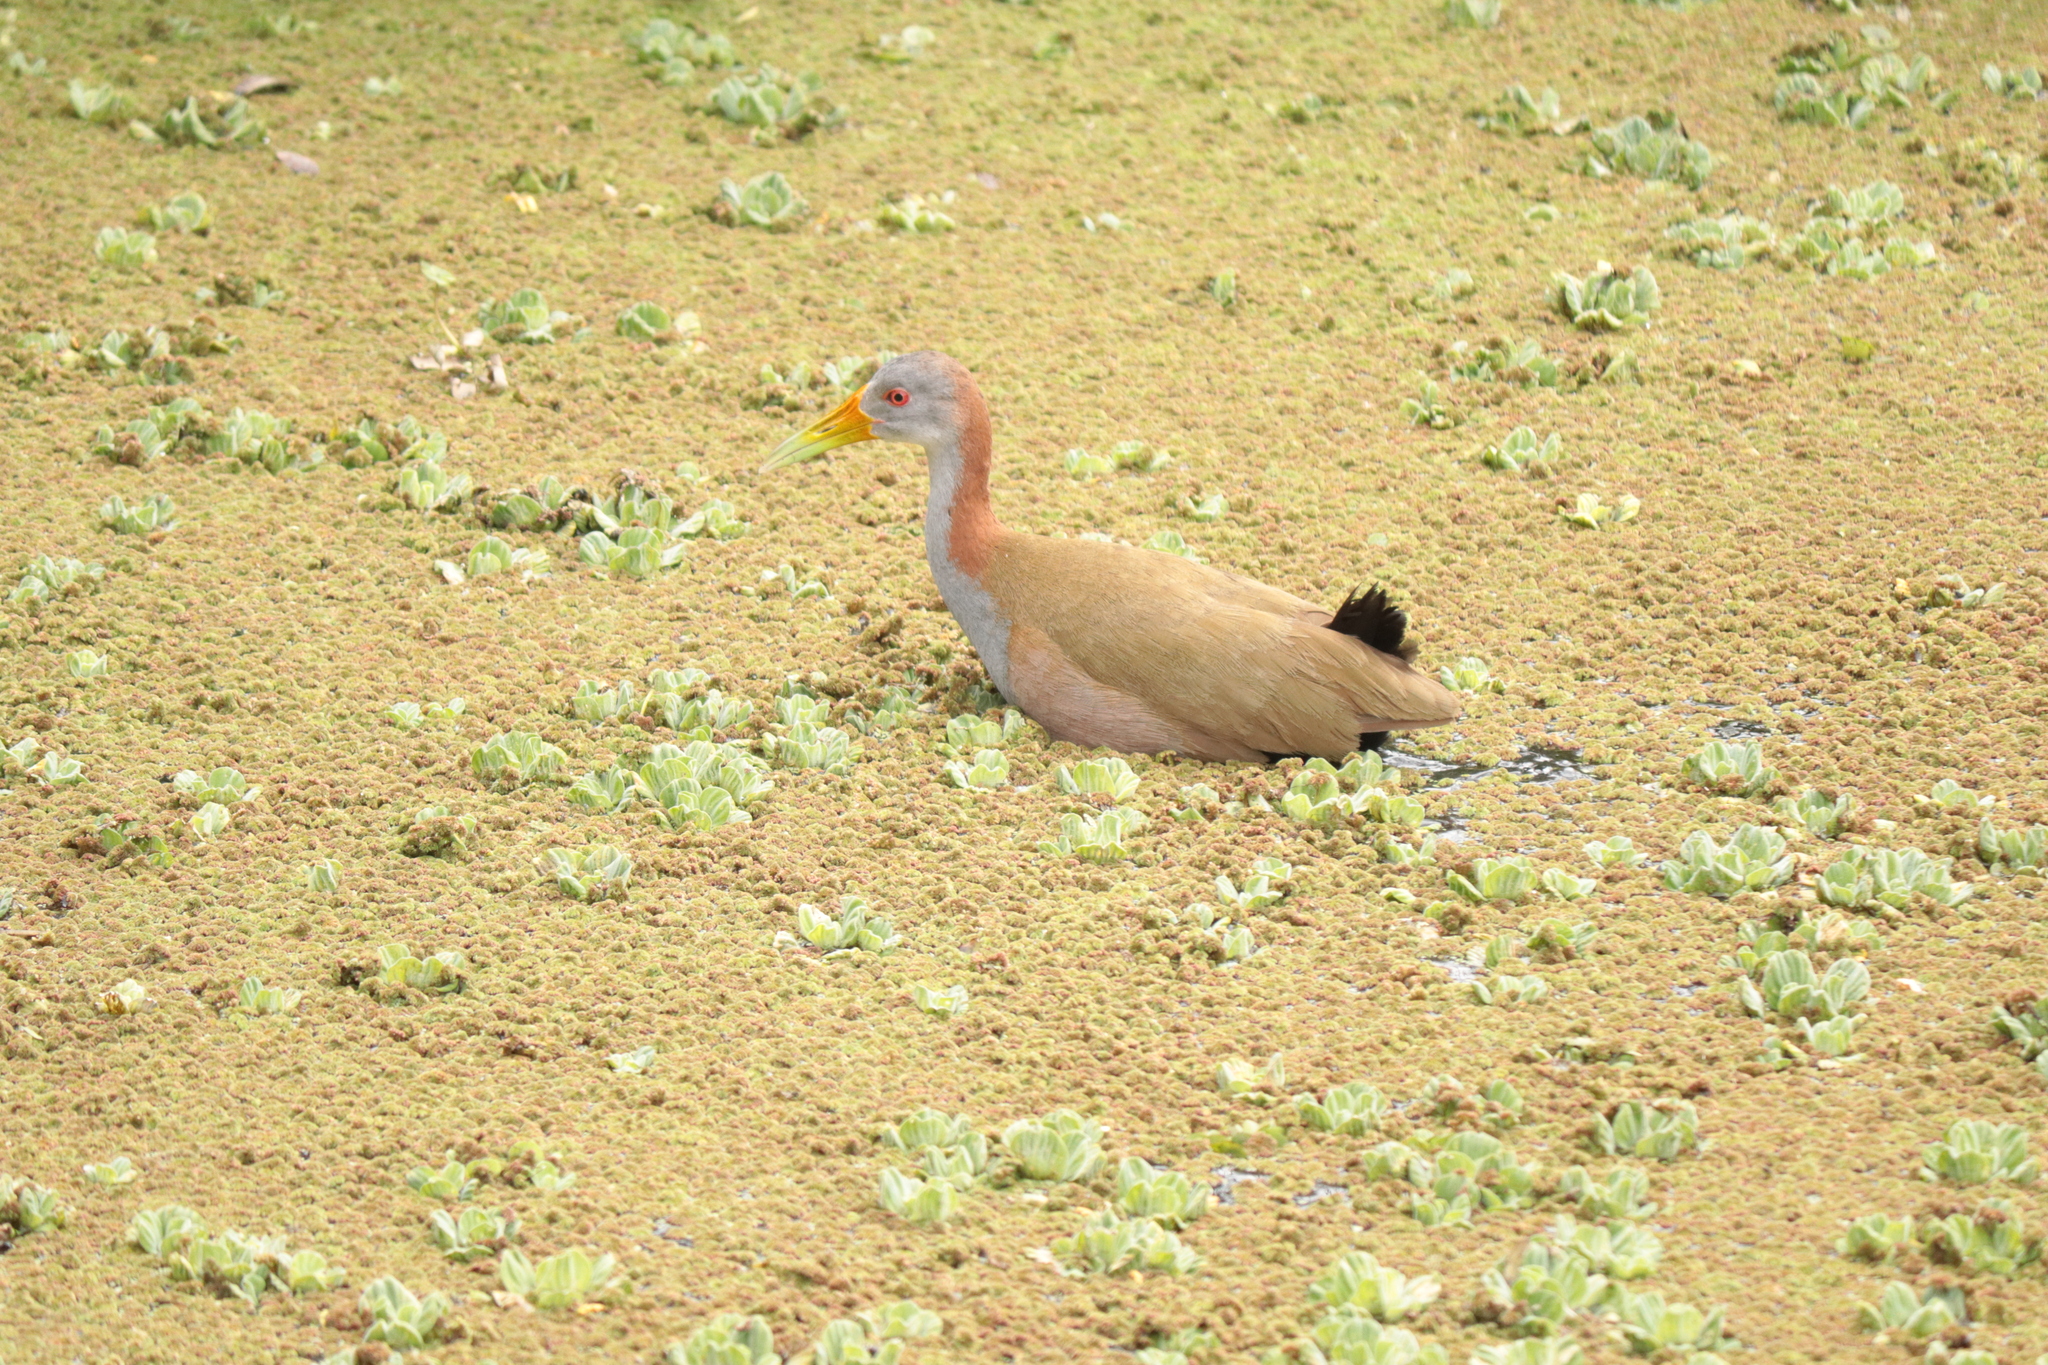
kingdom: Animalia
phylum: Chordata
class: Aves
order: Gruiformes
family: Rallidae
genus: Aramides
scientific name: Aramides ypecaha
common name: Giant wood rail
